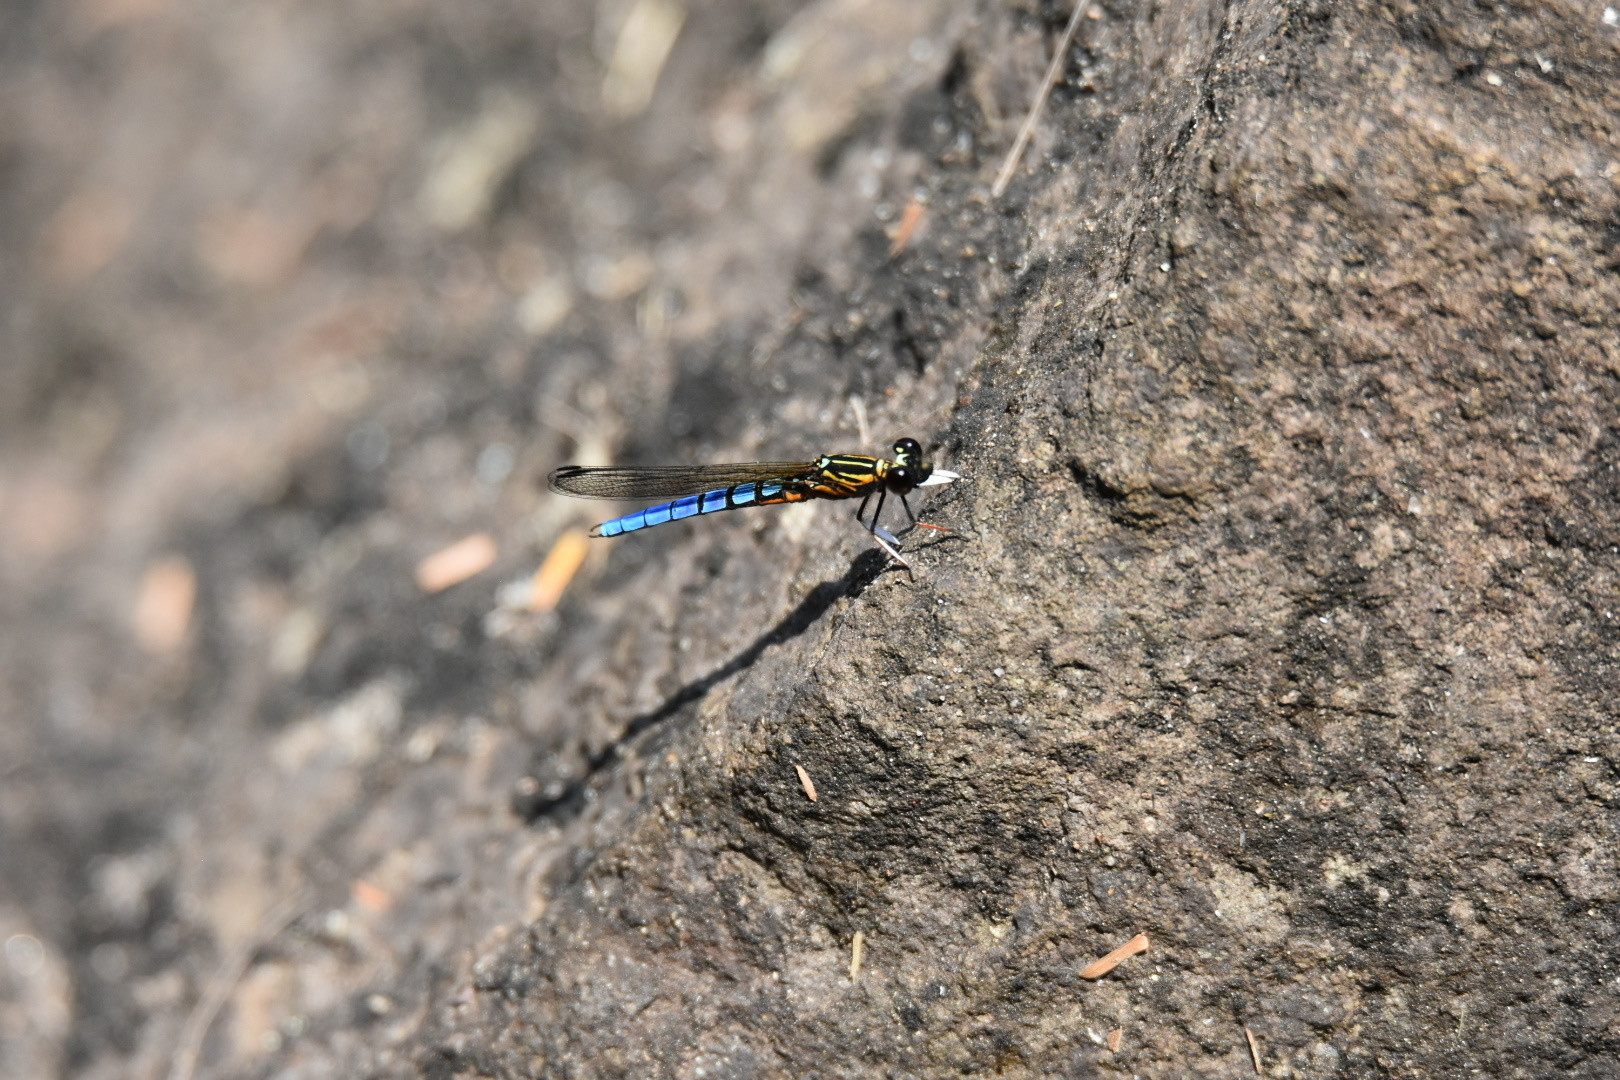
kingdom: Animalia
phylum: Arthropoda
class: Insecta
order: Odonata
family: Chlorocyphidae
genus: Platycypha
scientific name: Platycypha caligata
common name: Dancing jewel
